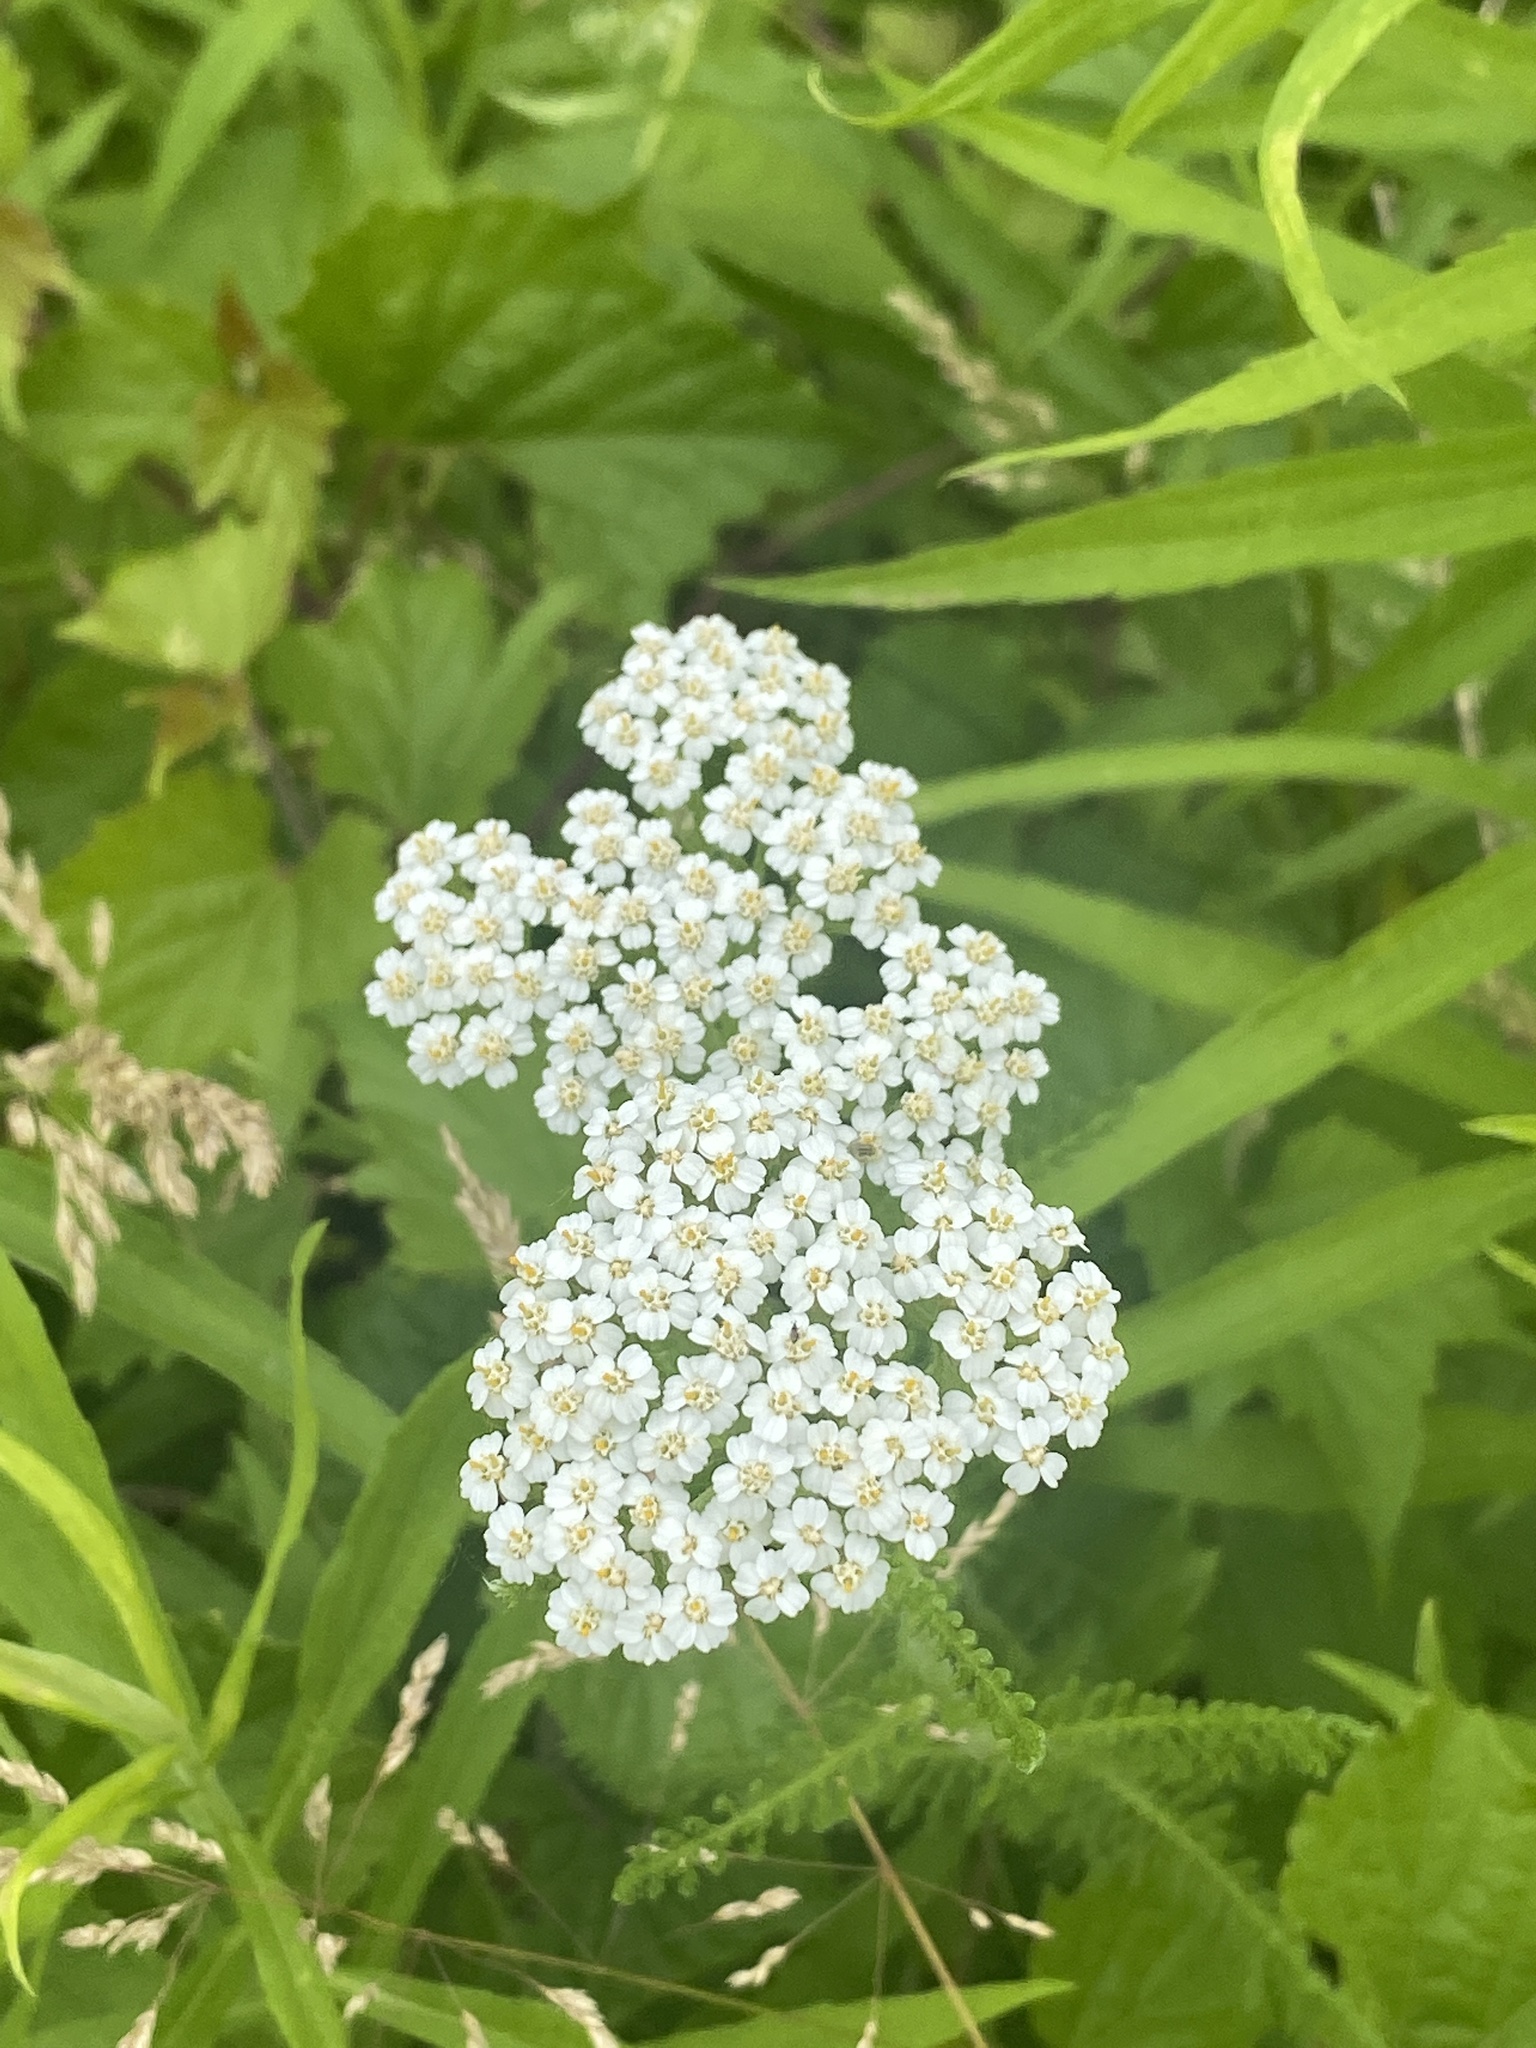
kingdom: Plantae
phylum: Tracheophyta
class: Magnoliopsida
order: Asterales
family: Asteraceae
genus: Achillea
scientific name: Achillea millefolium
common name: Yarrow
